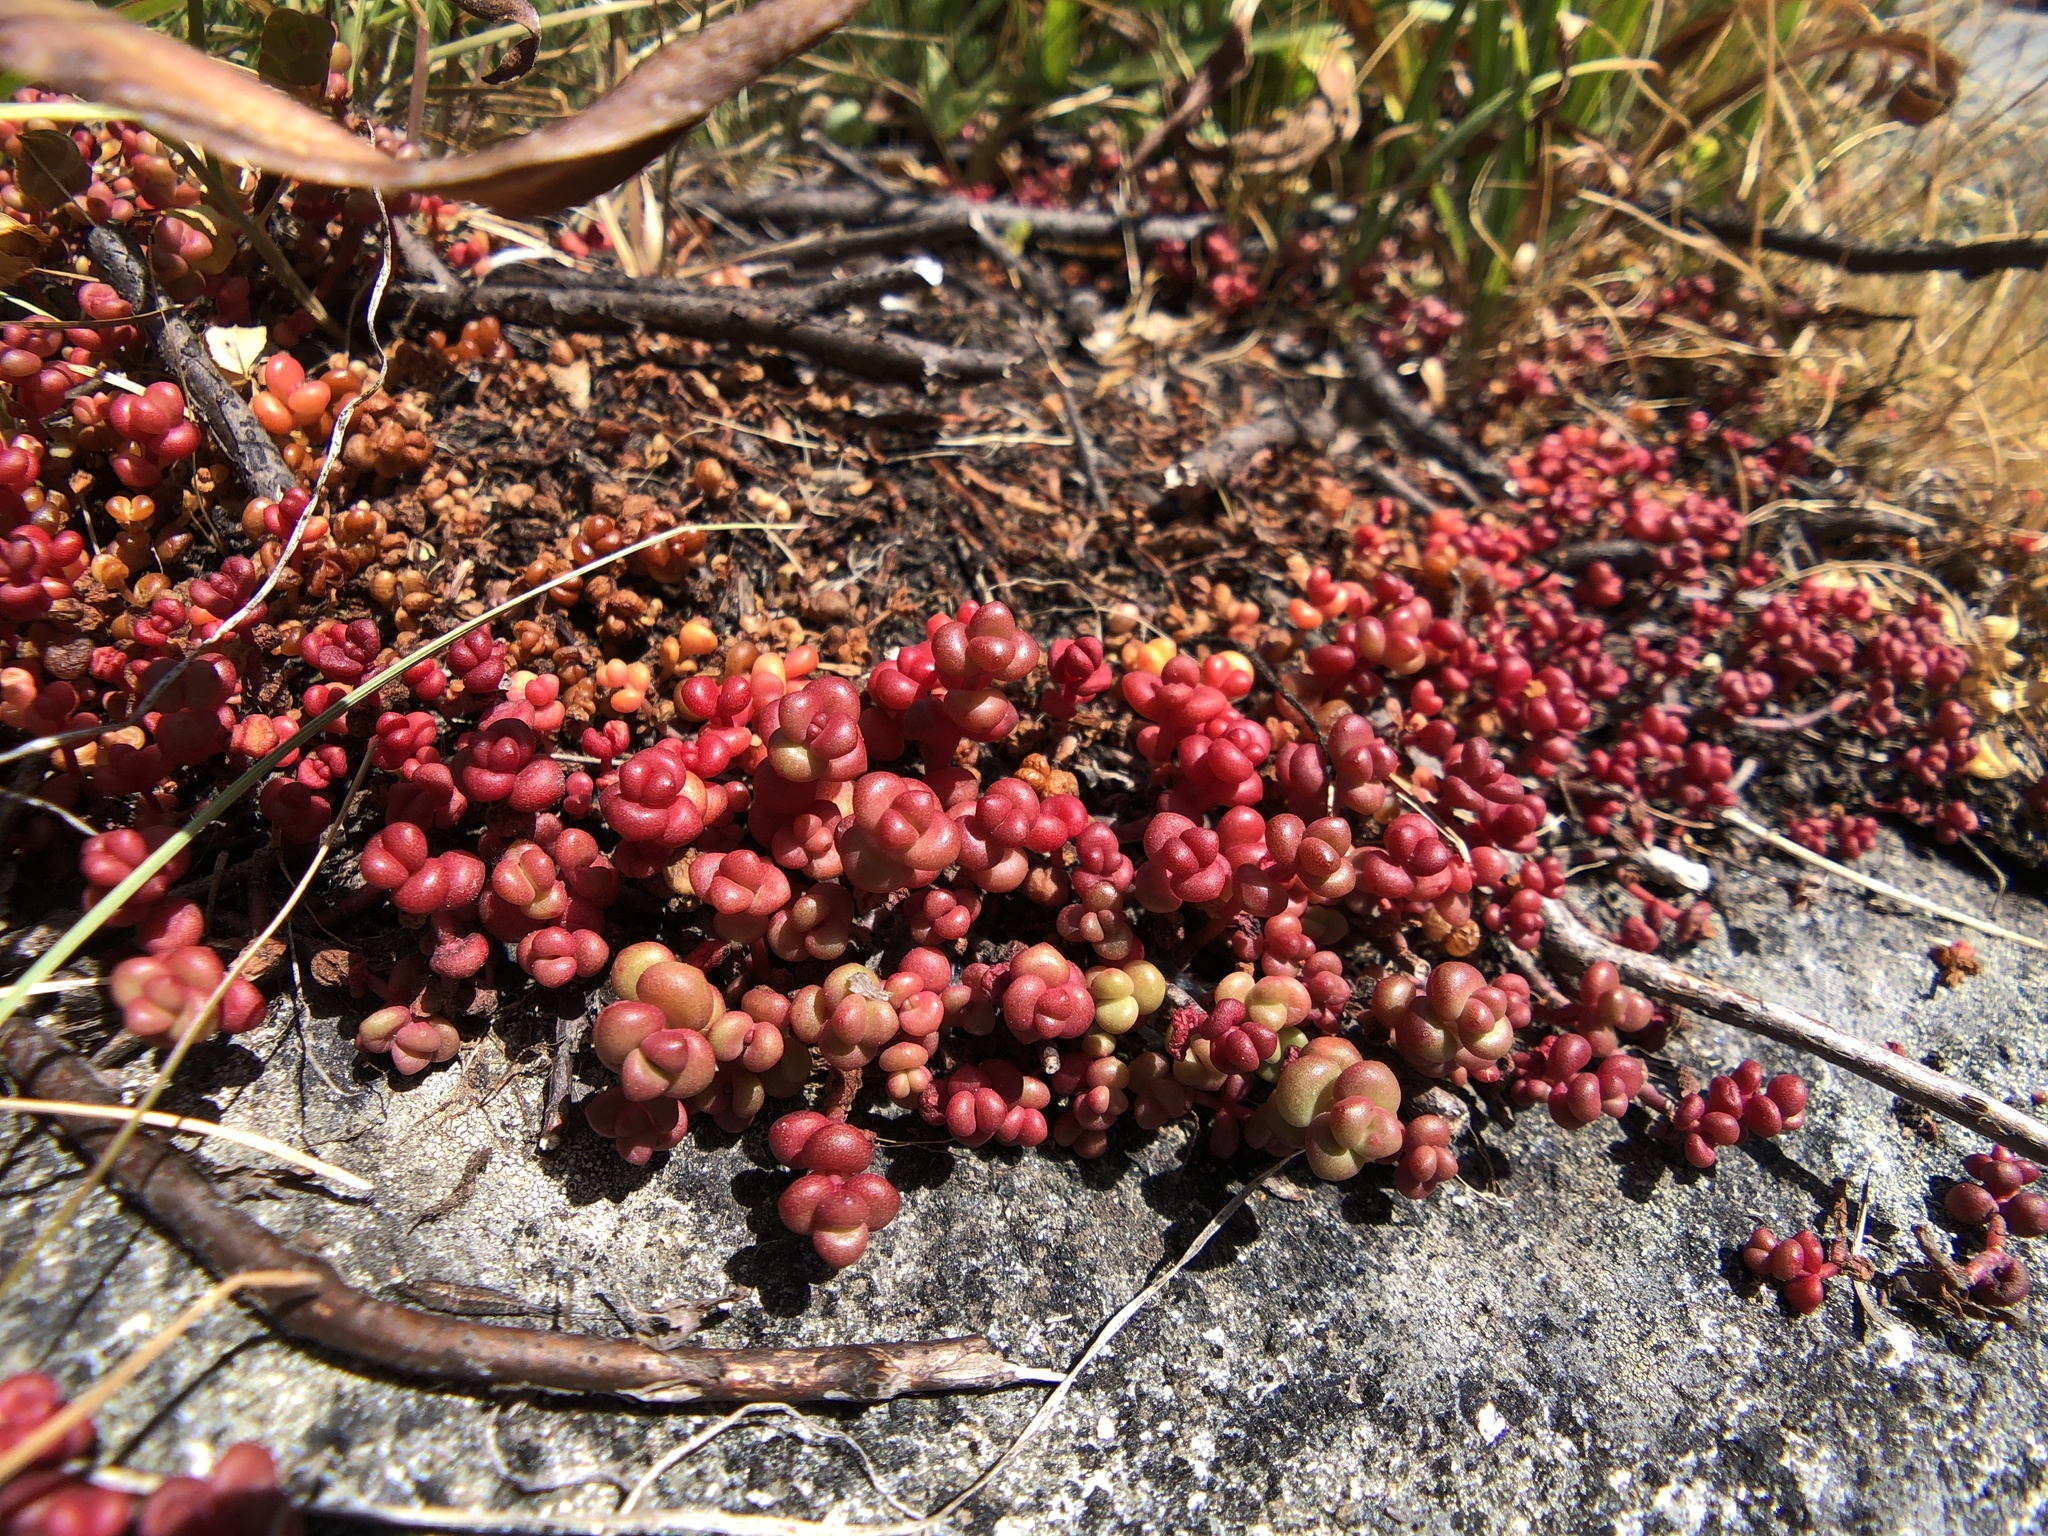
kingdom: Plantae
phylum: Tracheophyta
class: Magnoliopsida
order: Saxifragales
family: Crassulaceae
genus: Sedum
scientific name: Sedum divergens
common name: Cascade stonecrop
